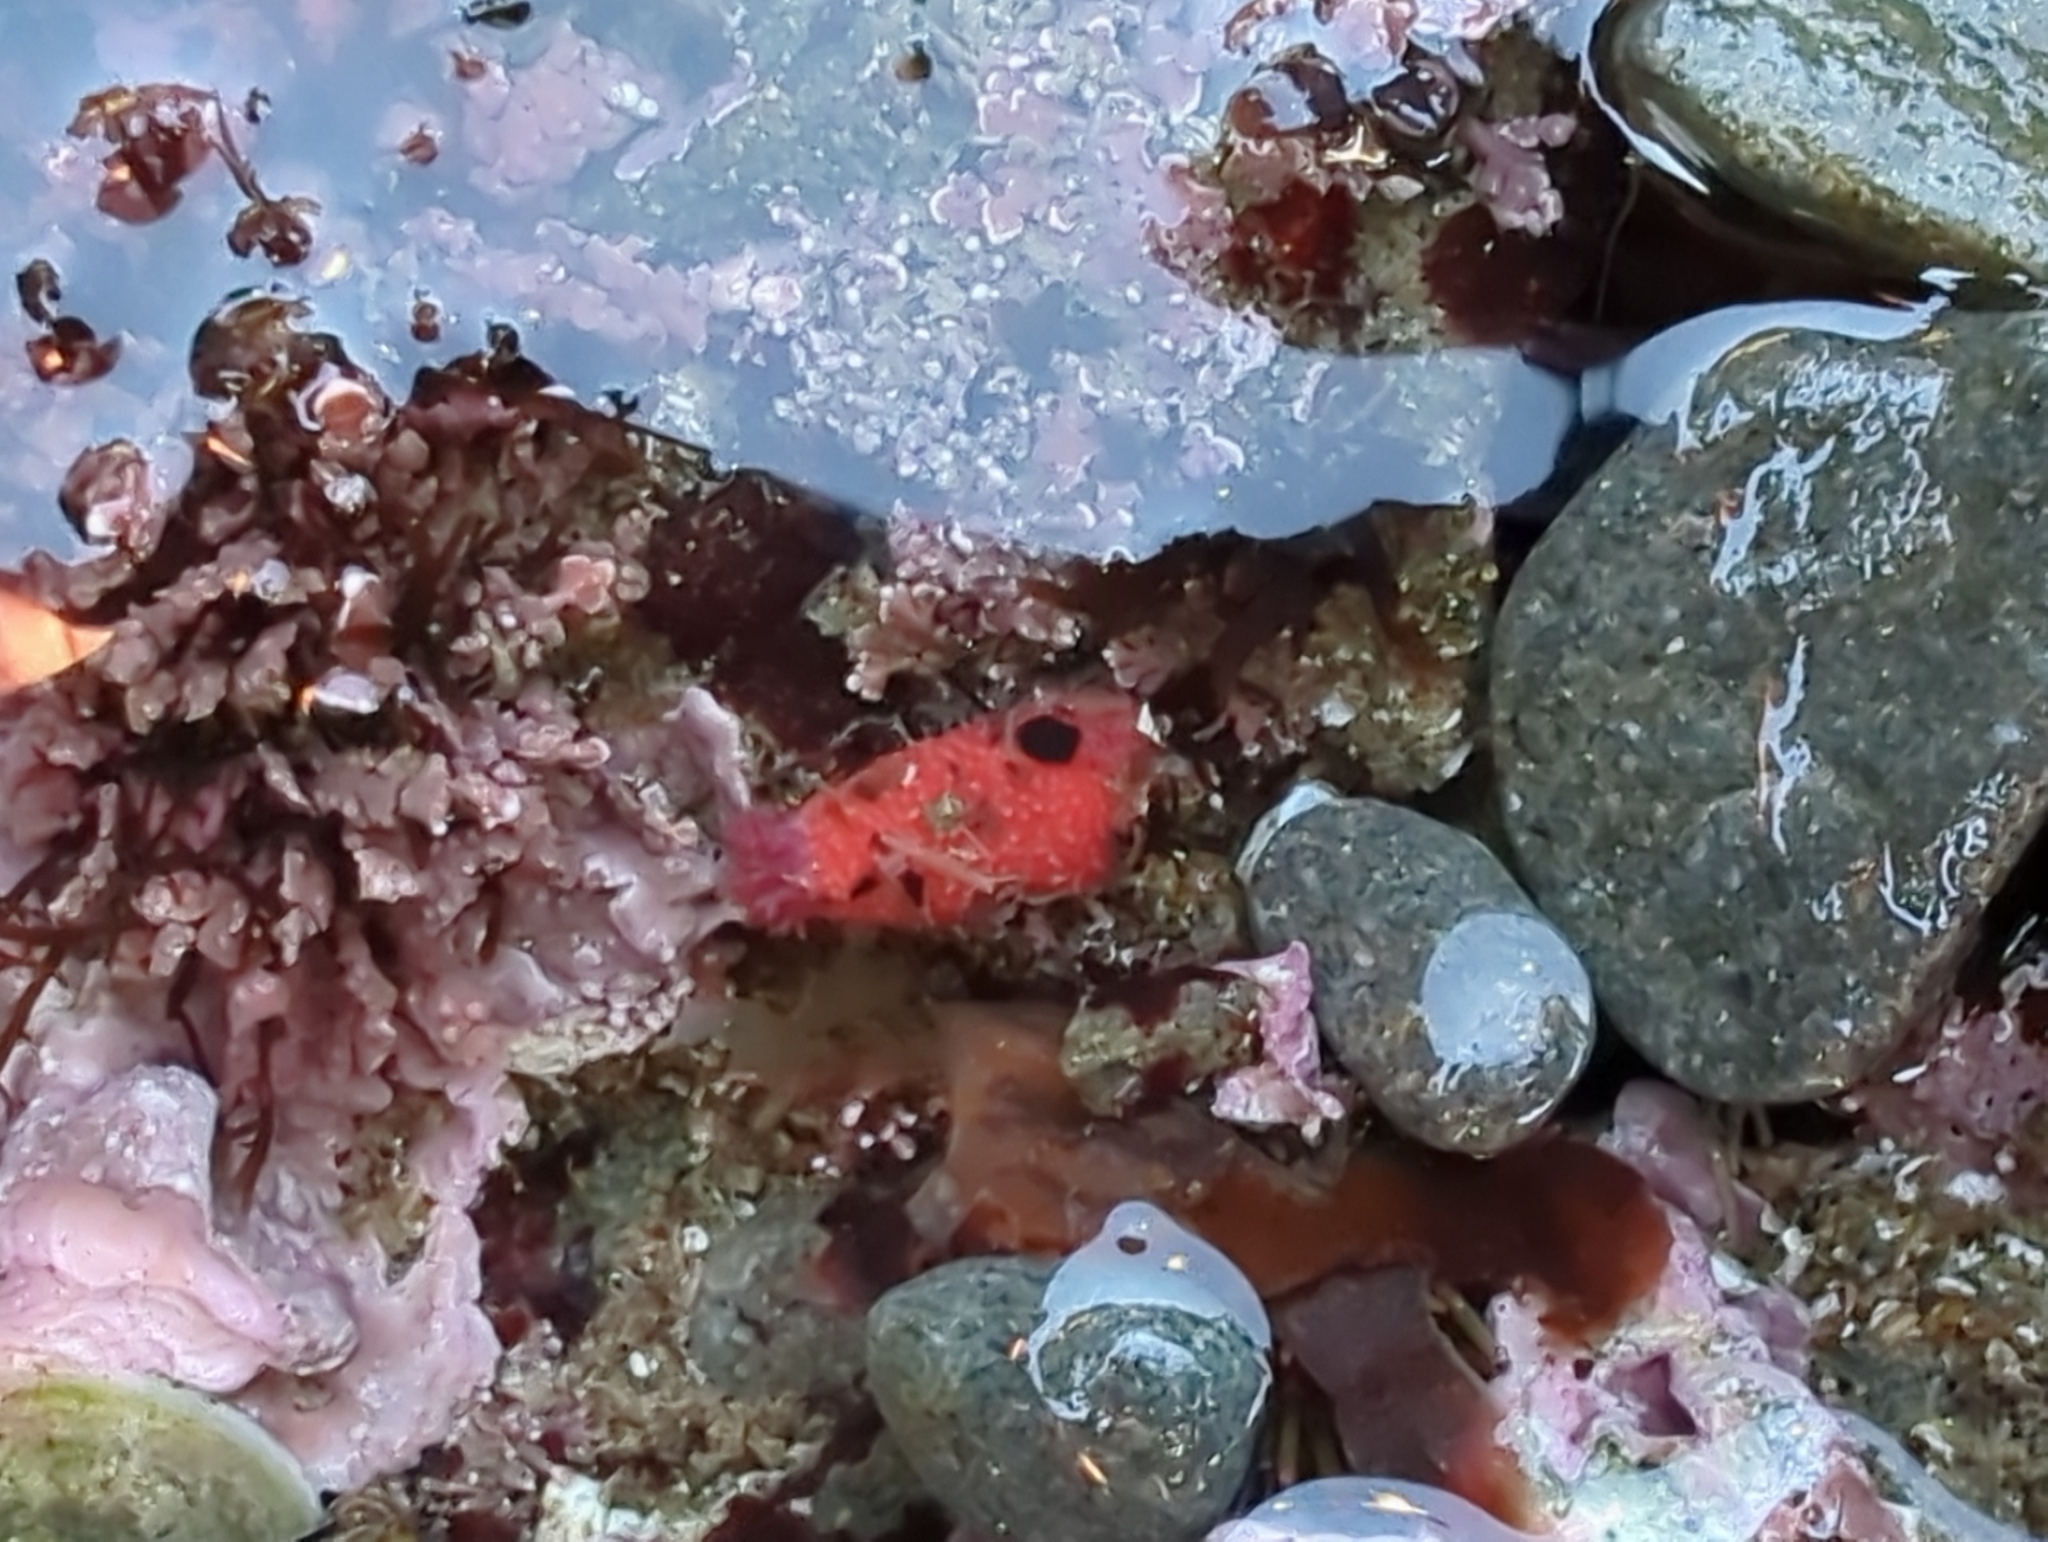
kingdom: Animalia
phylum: Echinodermata
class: Holothuroidea
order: Dendrochirotida
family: Psolidae
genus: Lissothuria
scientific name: Lissothuria nutriens
